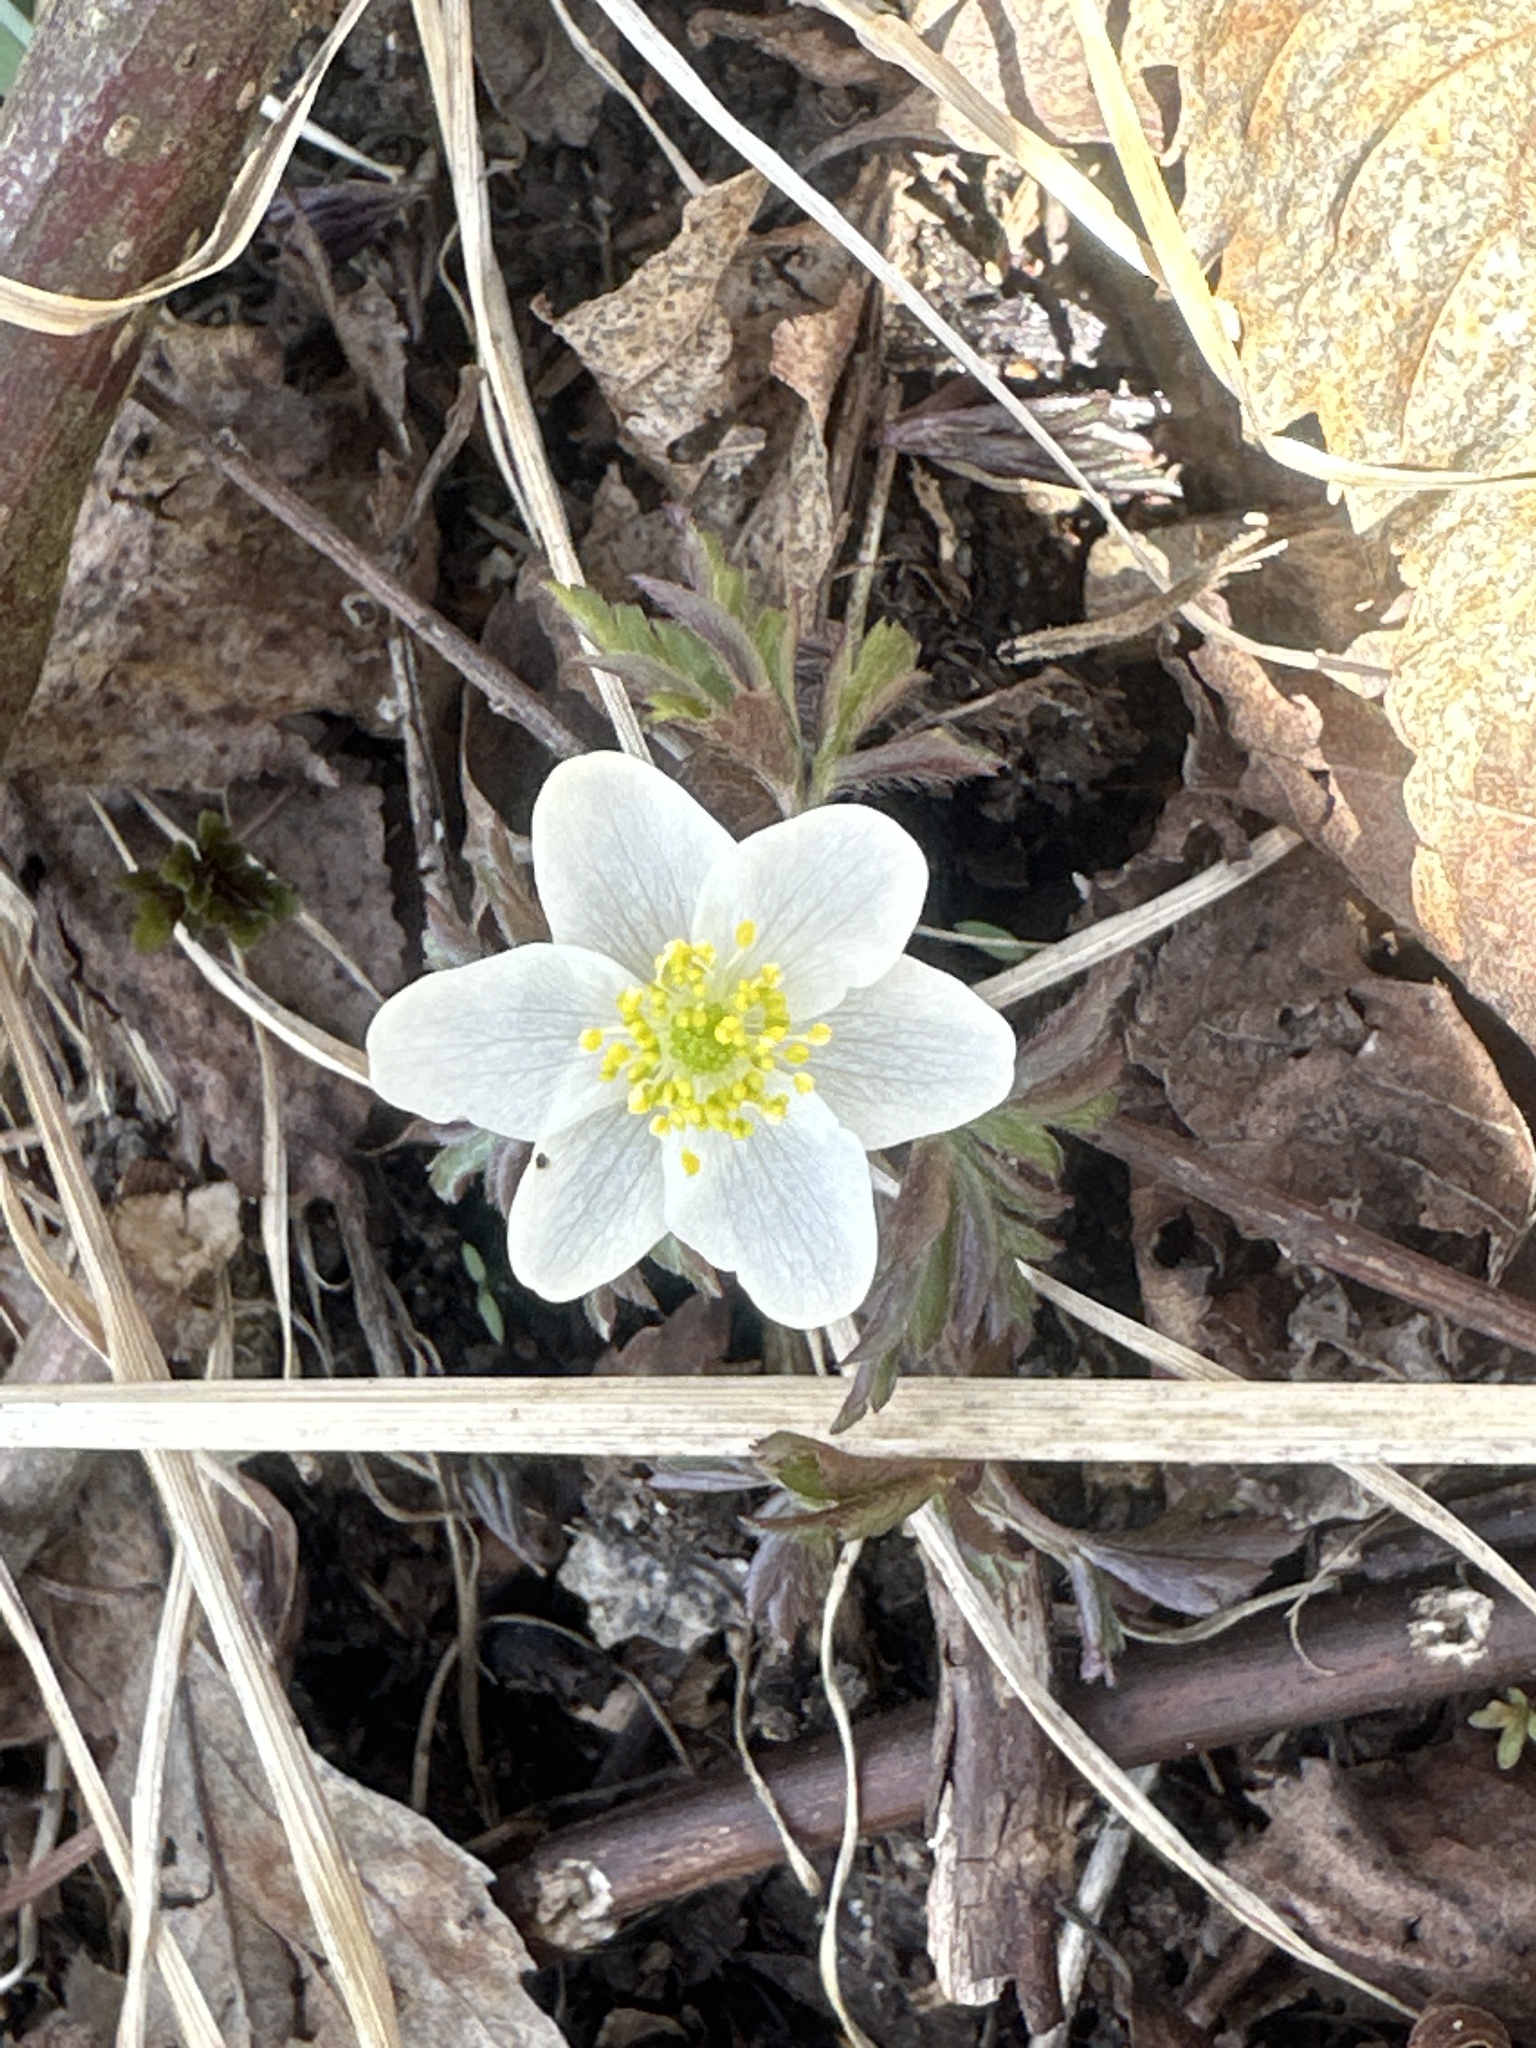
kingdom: Plantae
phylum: Tracheophyta
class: Magnoliopsida
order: Ranunculales
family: Ranunculaceae
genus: Anemone
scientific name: Anemone nemorosa
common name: Wood anemone
